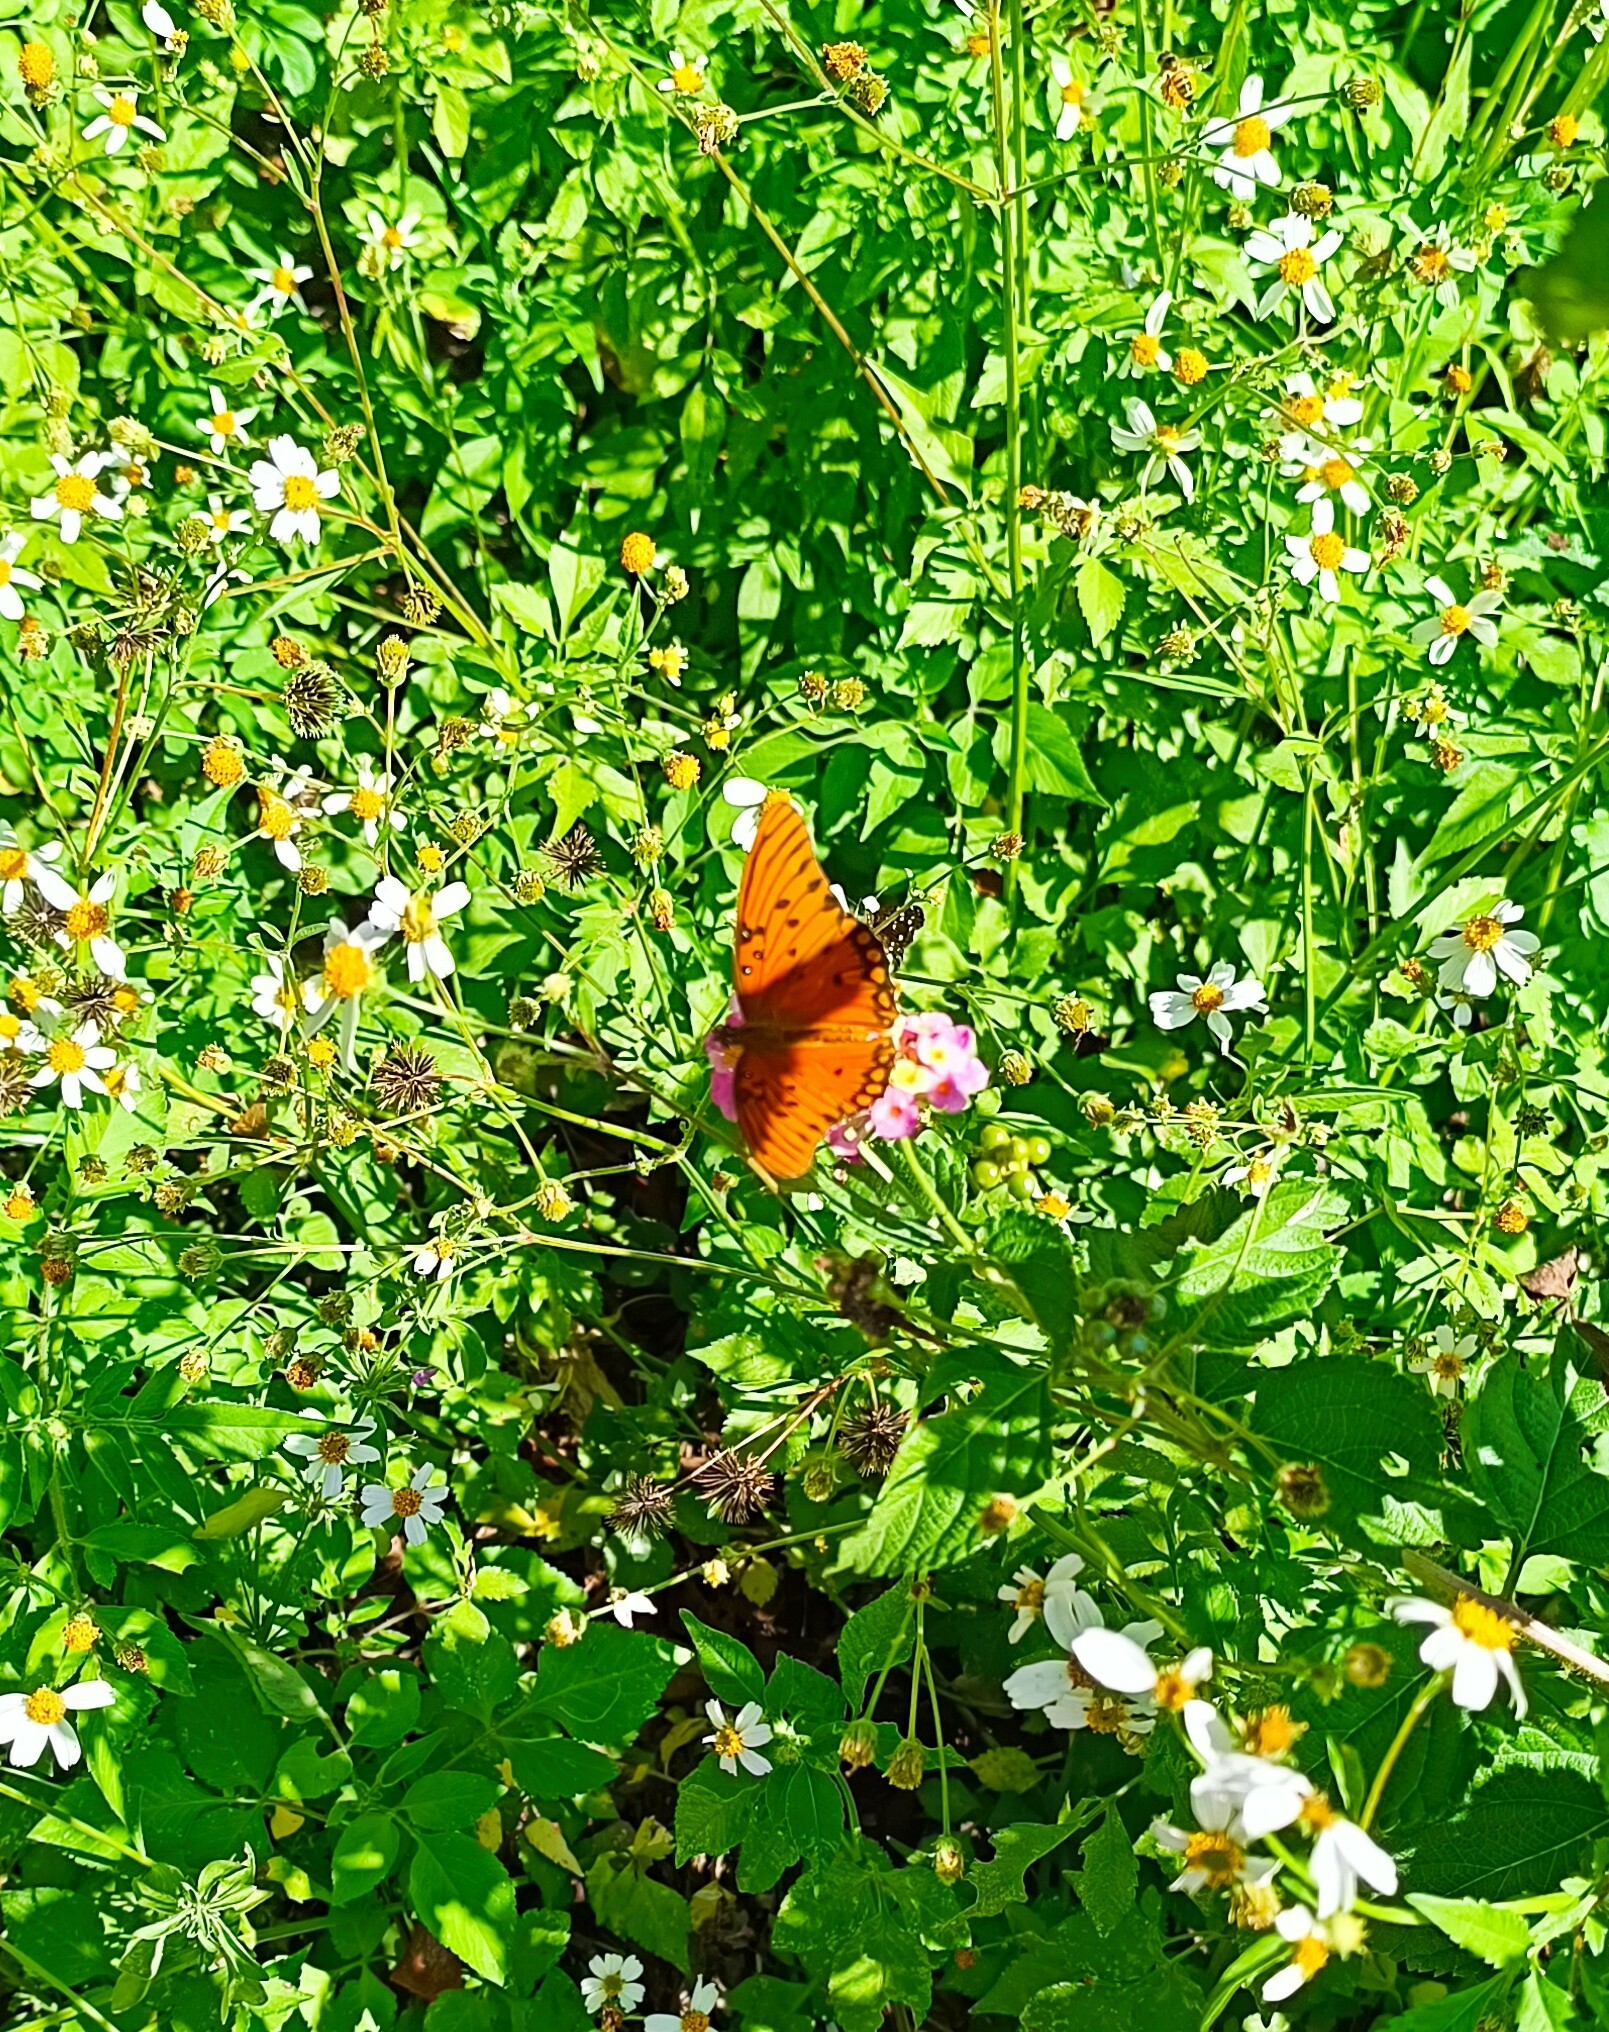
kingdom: Animalia
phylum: Arthropoda
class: Insecta
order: Lepidoptera
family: Nymphalidae
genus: Dione
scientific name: Dione vanillae
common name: Gulf fritillary
